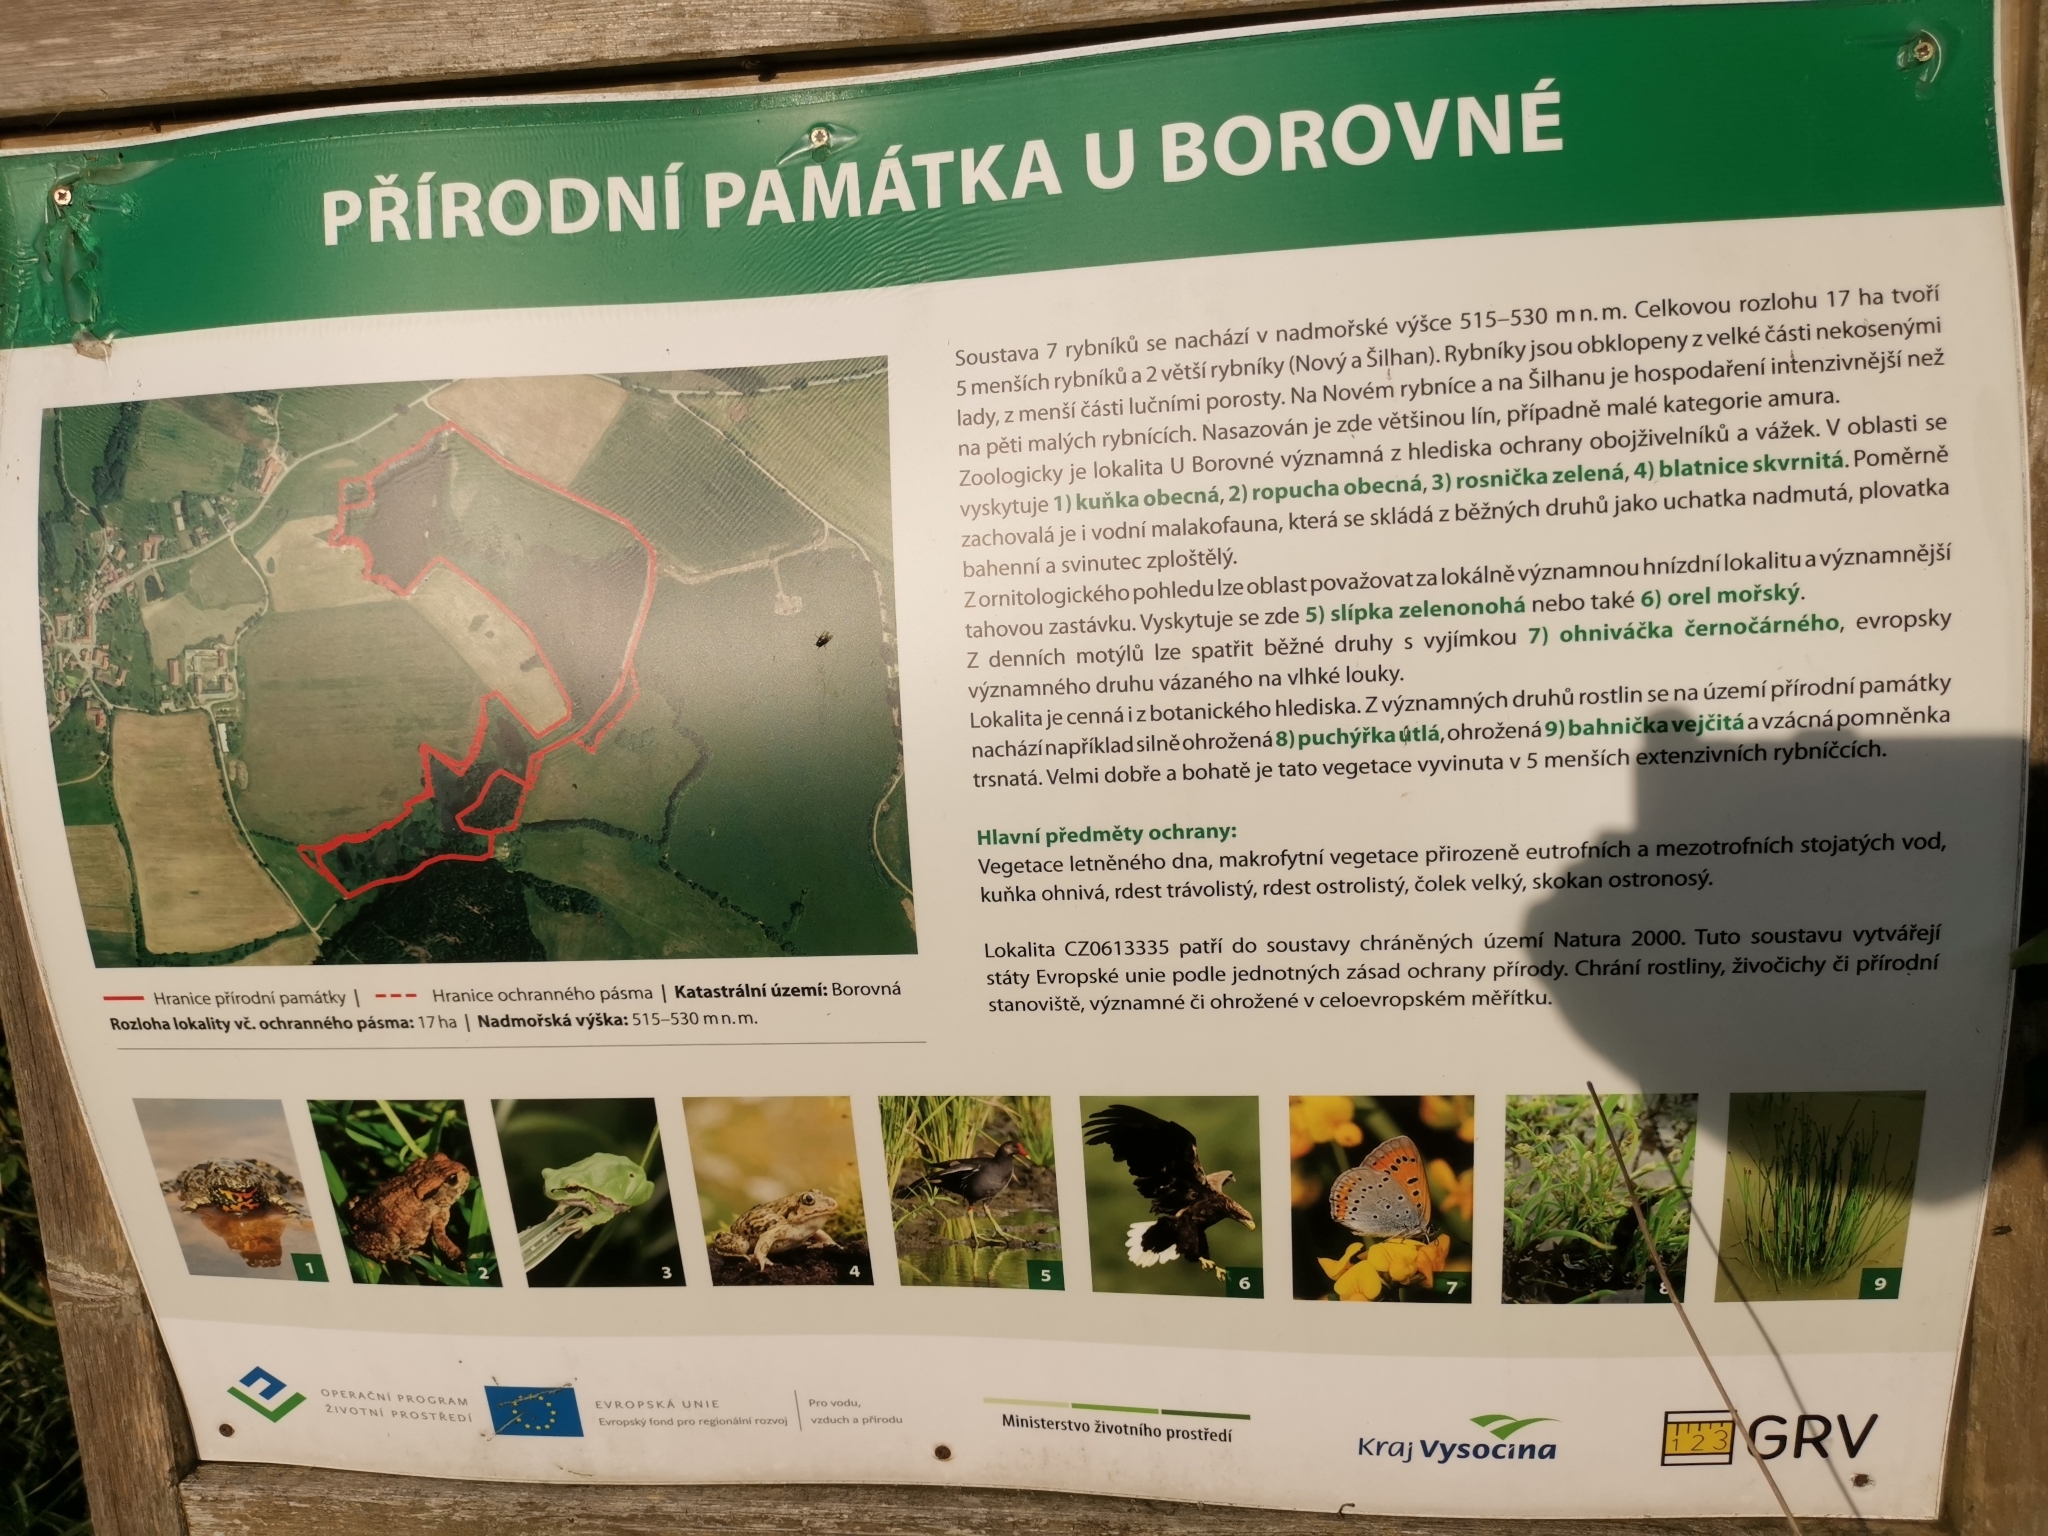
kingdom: Animalia
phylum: Chordata
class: Amphibia
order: Anura
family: Bombinatoridae
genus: Bombina
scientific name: Bombina bombina
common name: Fire-bellied toad
